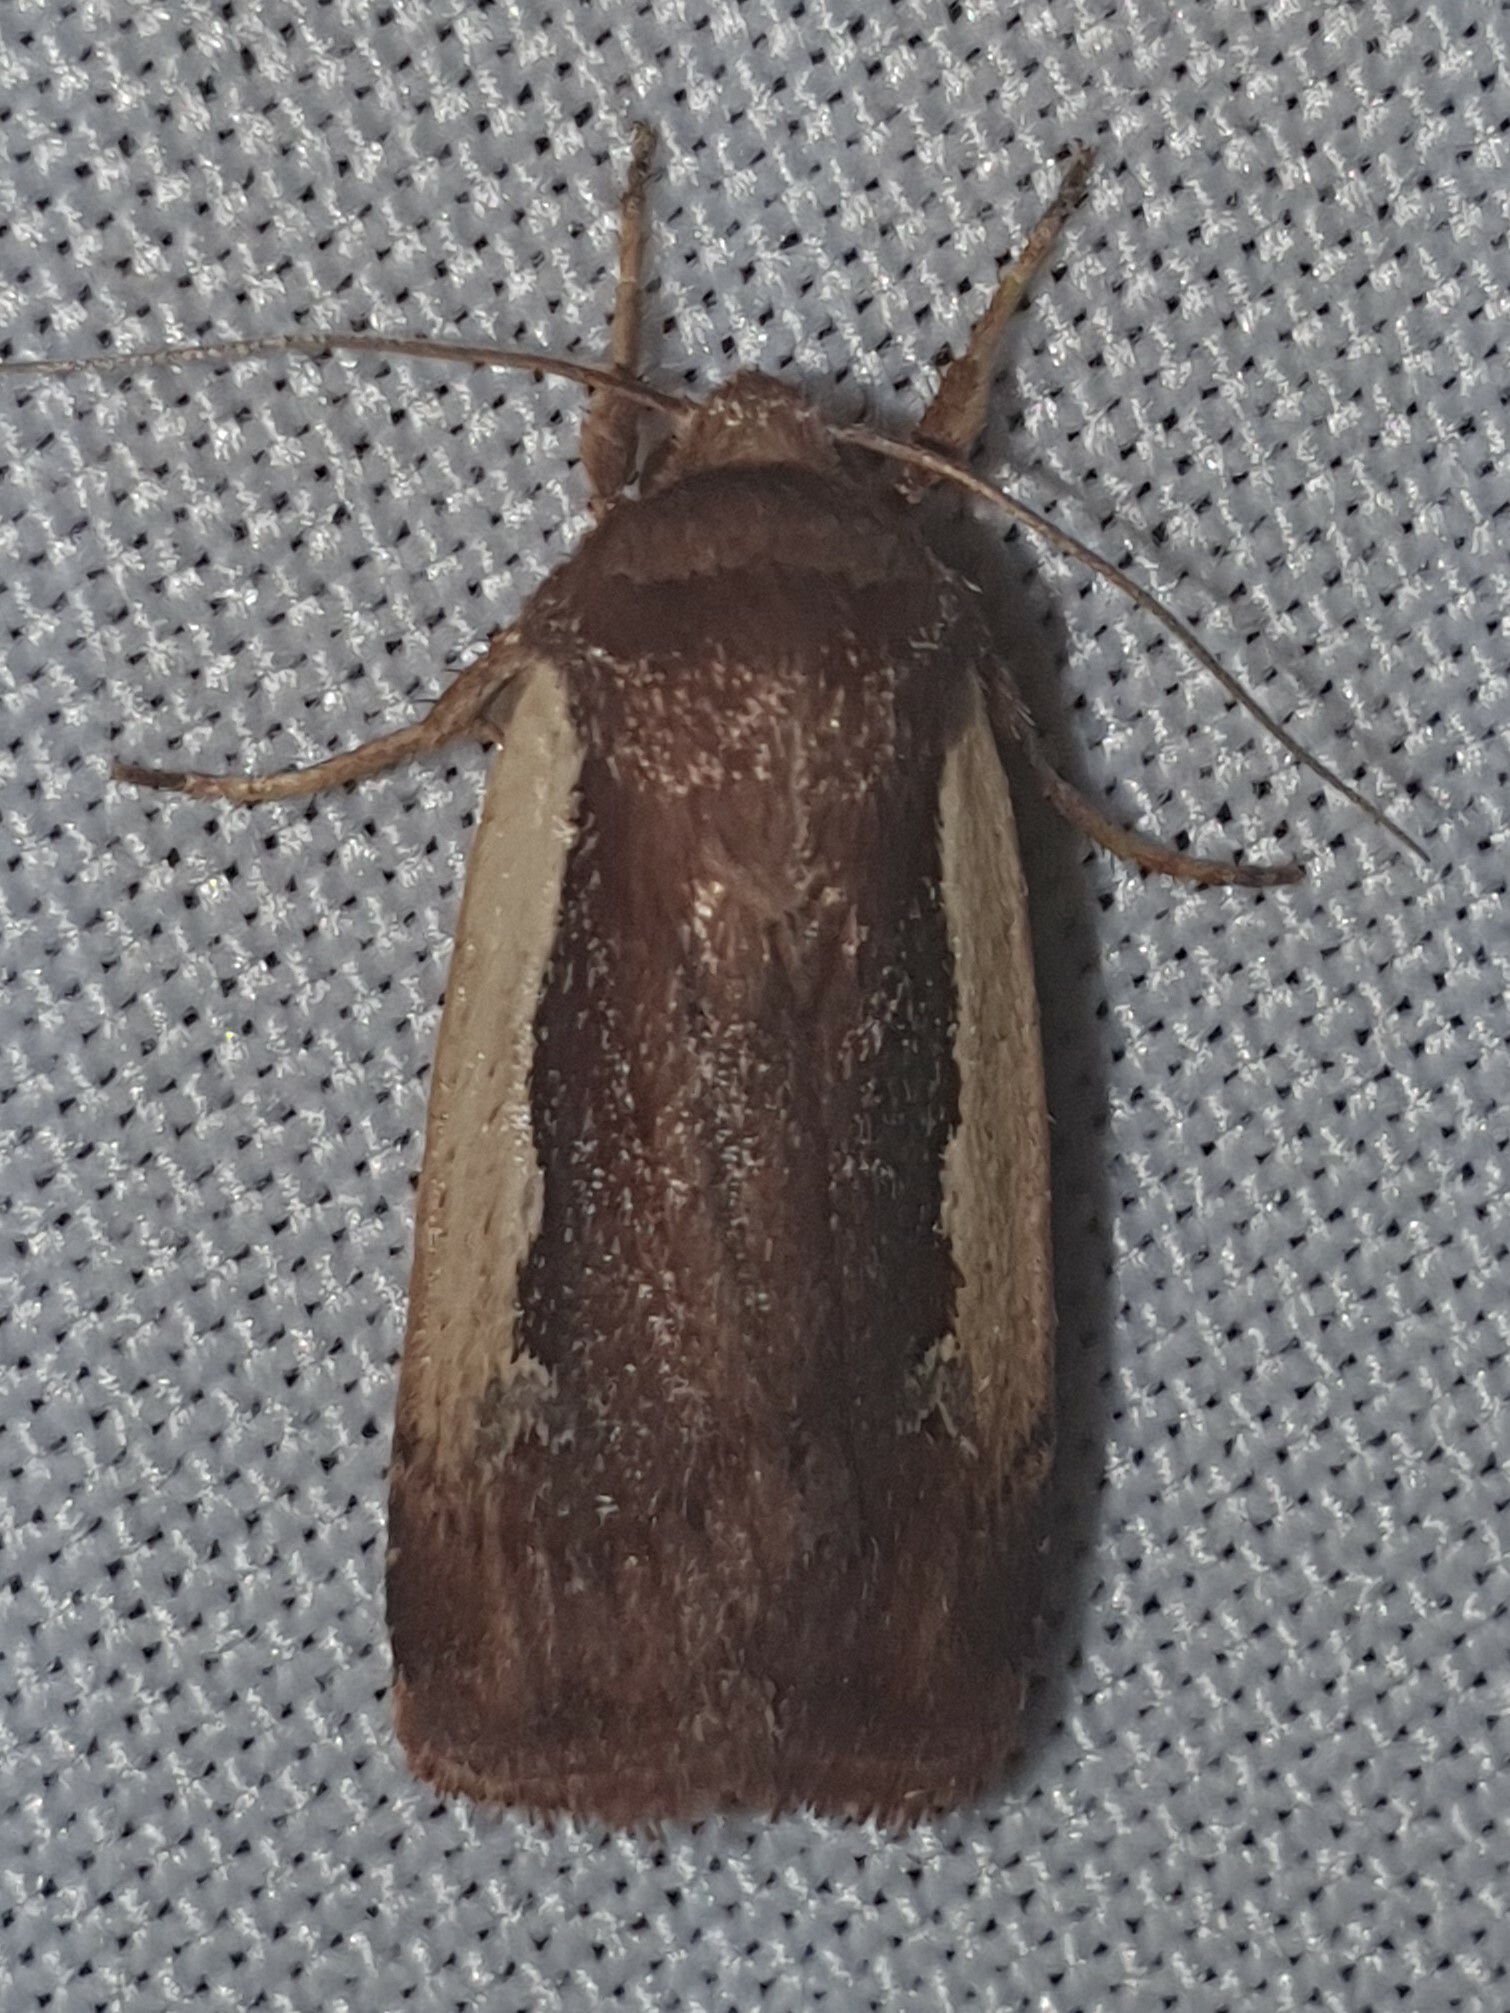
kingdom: Animalia
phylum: Arthropoda
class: Insecta
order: Lepidoptera
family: Noctuidae
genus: Ochropleura
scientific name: Ochropleura plecta
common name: Flame shoulder
